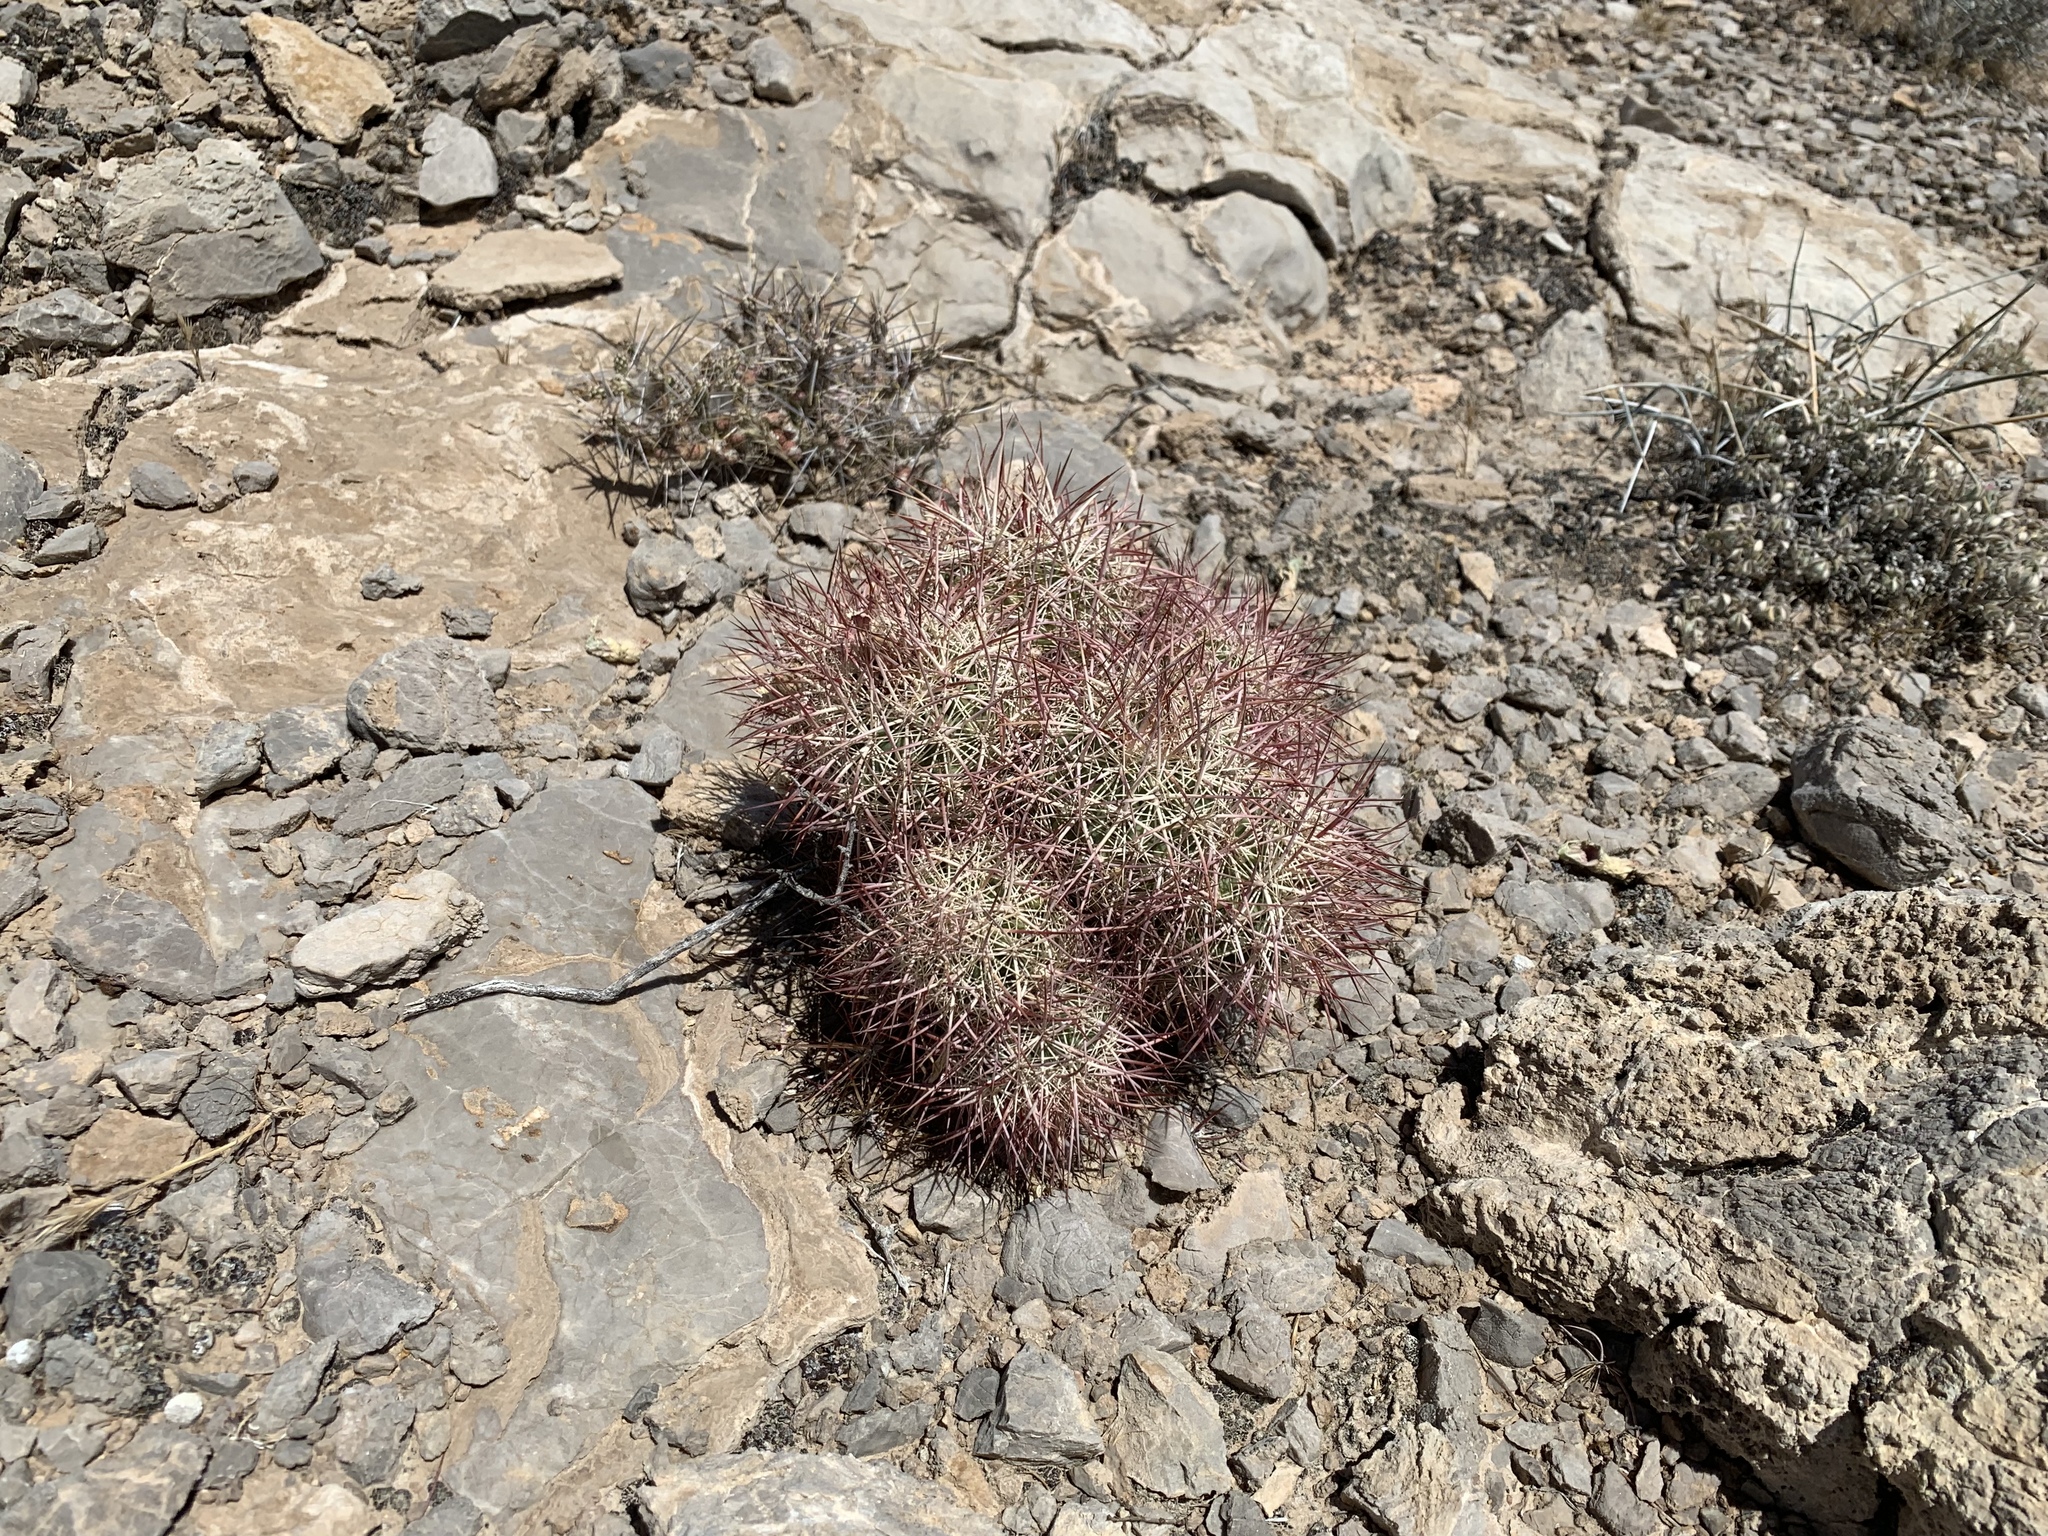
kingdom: Plantae
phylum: Tracheophyta
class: Magnoliopsida
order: Caryophyllales
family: Cactaceae
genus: Sclerocactus
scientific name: Sclerocactus johnsonii
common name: Eight-spine fishhook cactus
